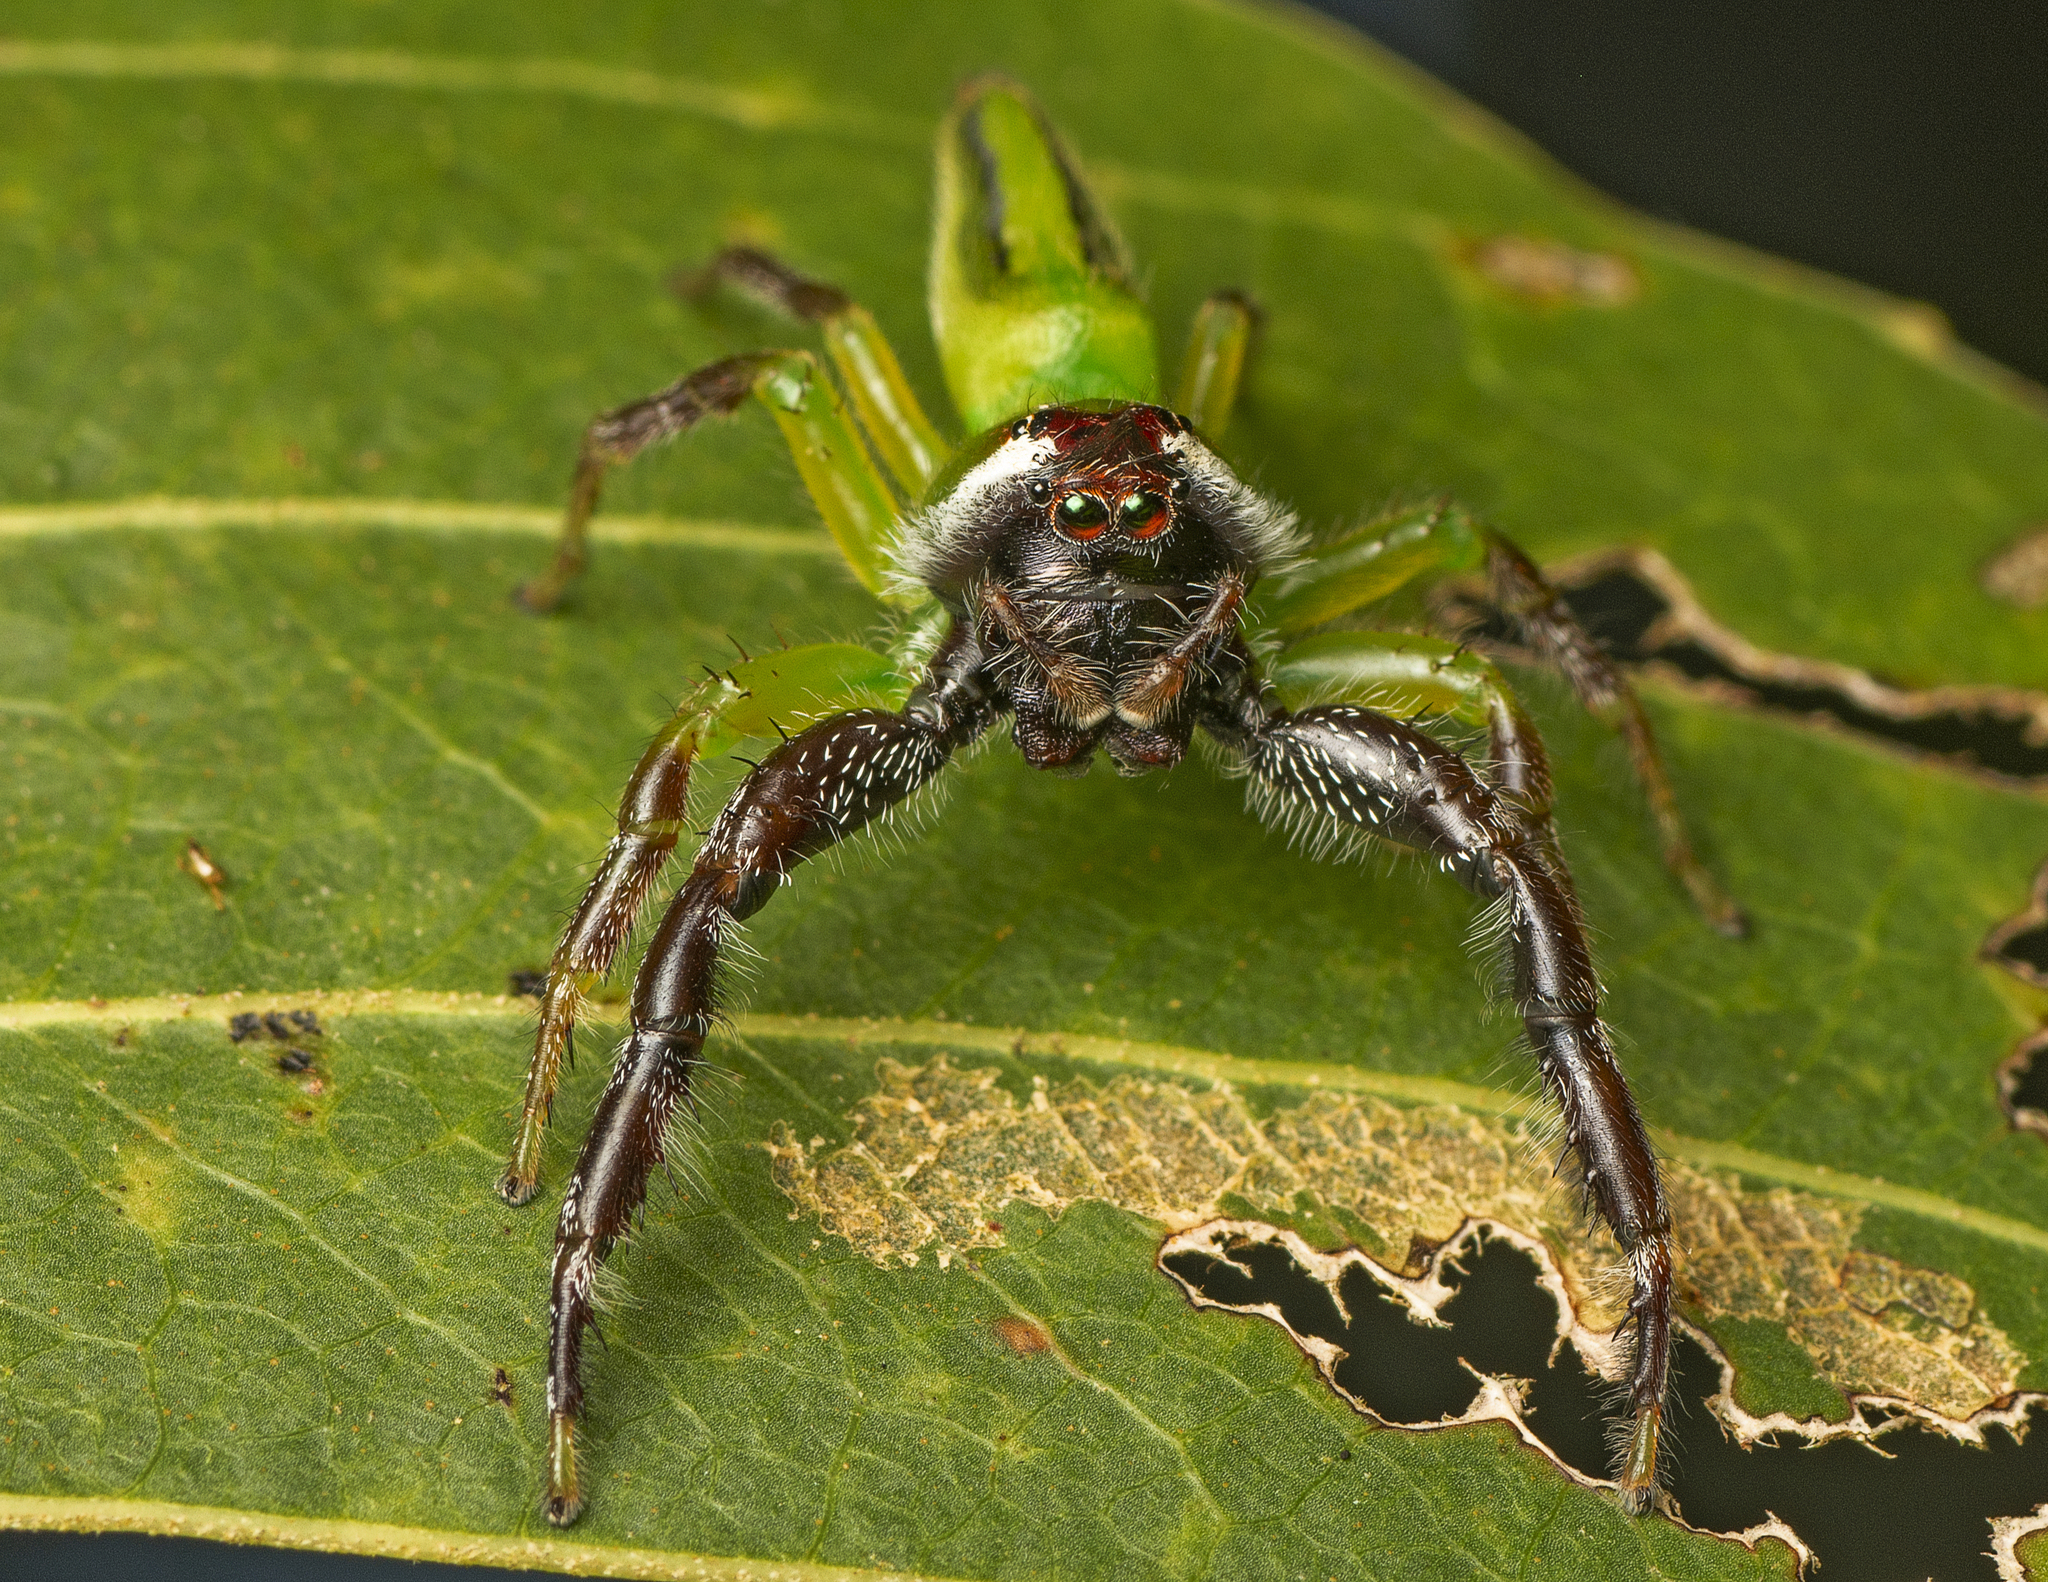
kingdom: Animalia
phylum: Arthropoda
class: Arachnida
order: Araneae
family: Salticidae
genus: Mopsus
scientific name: Mopsus mormon
